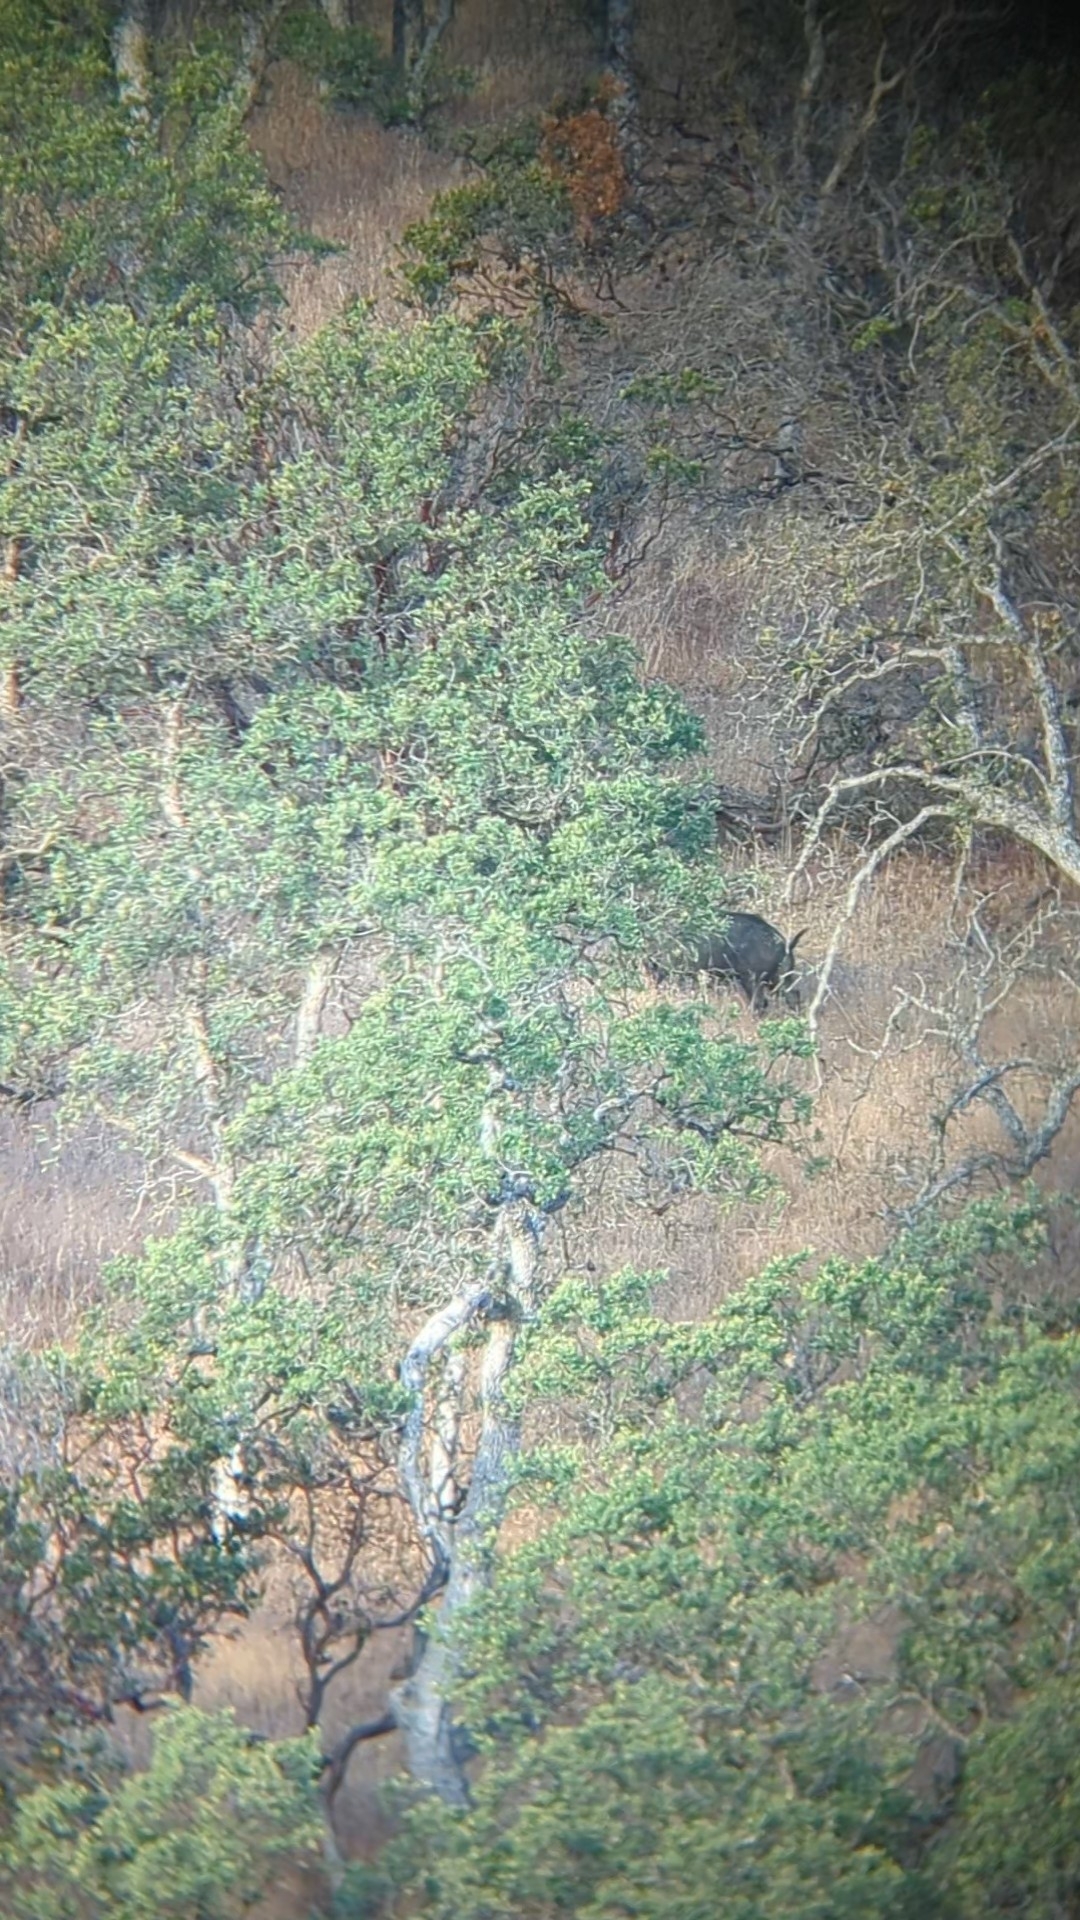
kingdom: Animalia
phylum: Chordata
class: Mammalia
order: Artiodactyla
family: Suidae
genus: Sus
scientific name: Sus scrofa
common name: Wild boar
